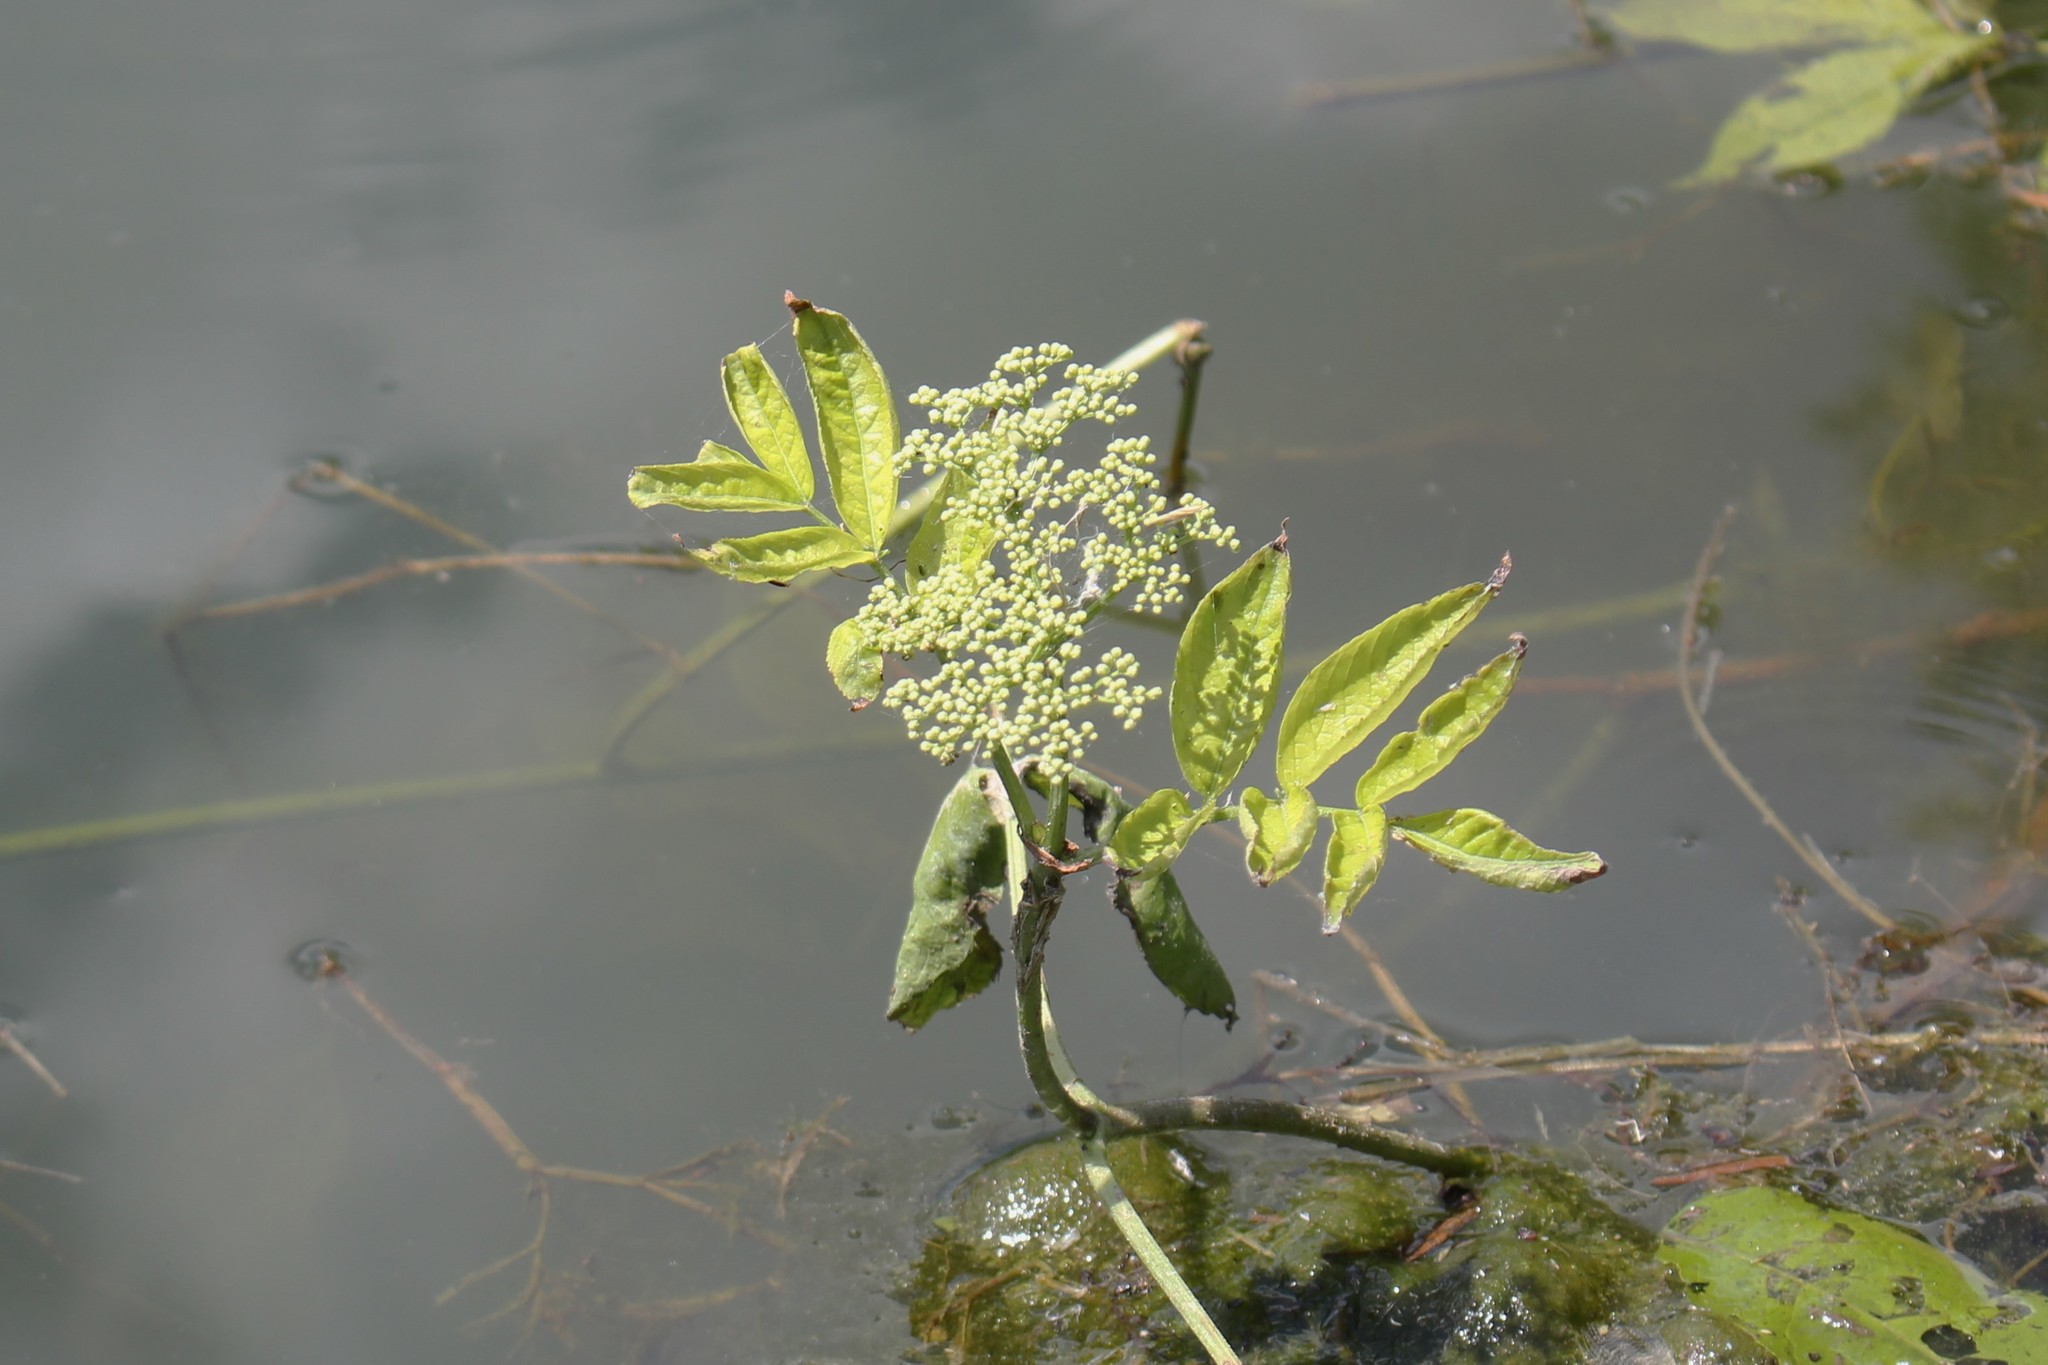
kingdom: Plantae
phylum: Tracheophyta
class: Magnoliopsida
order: Apiales
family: Apiaceae
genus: Sium
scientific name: Sium suave
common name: Hemlock water-parsnip
